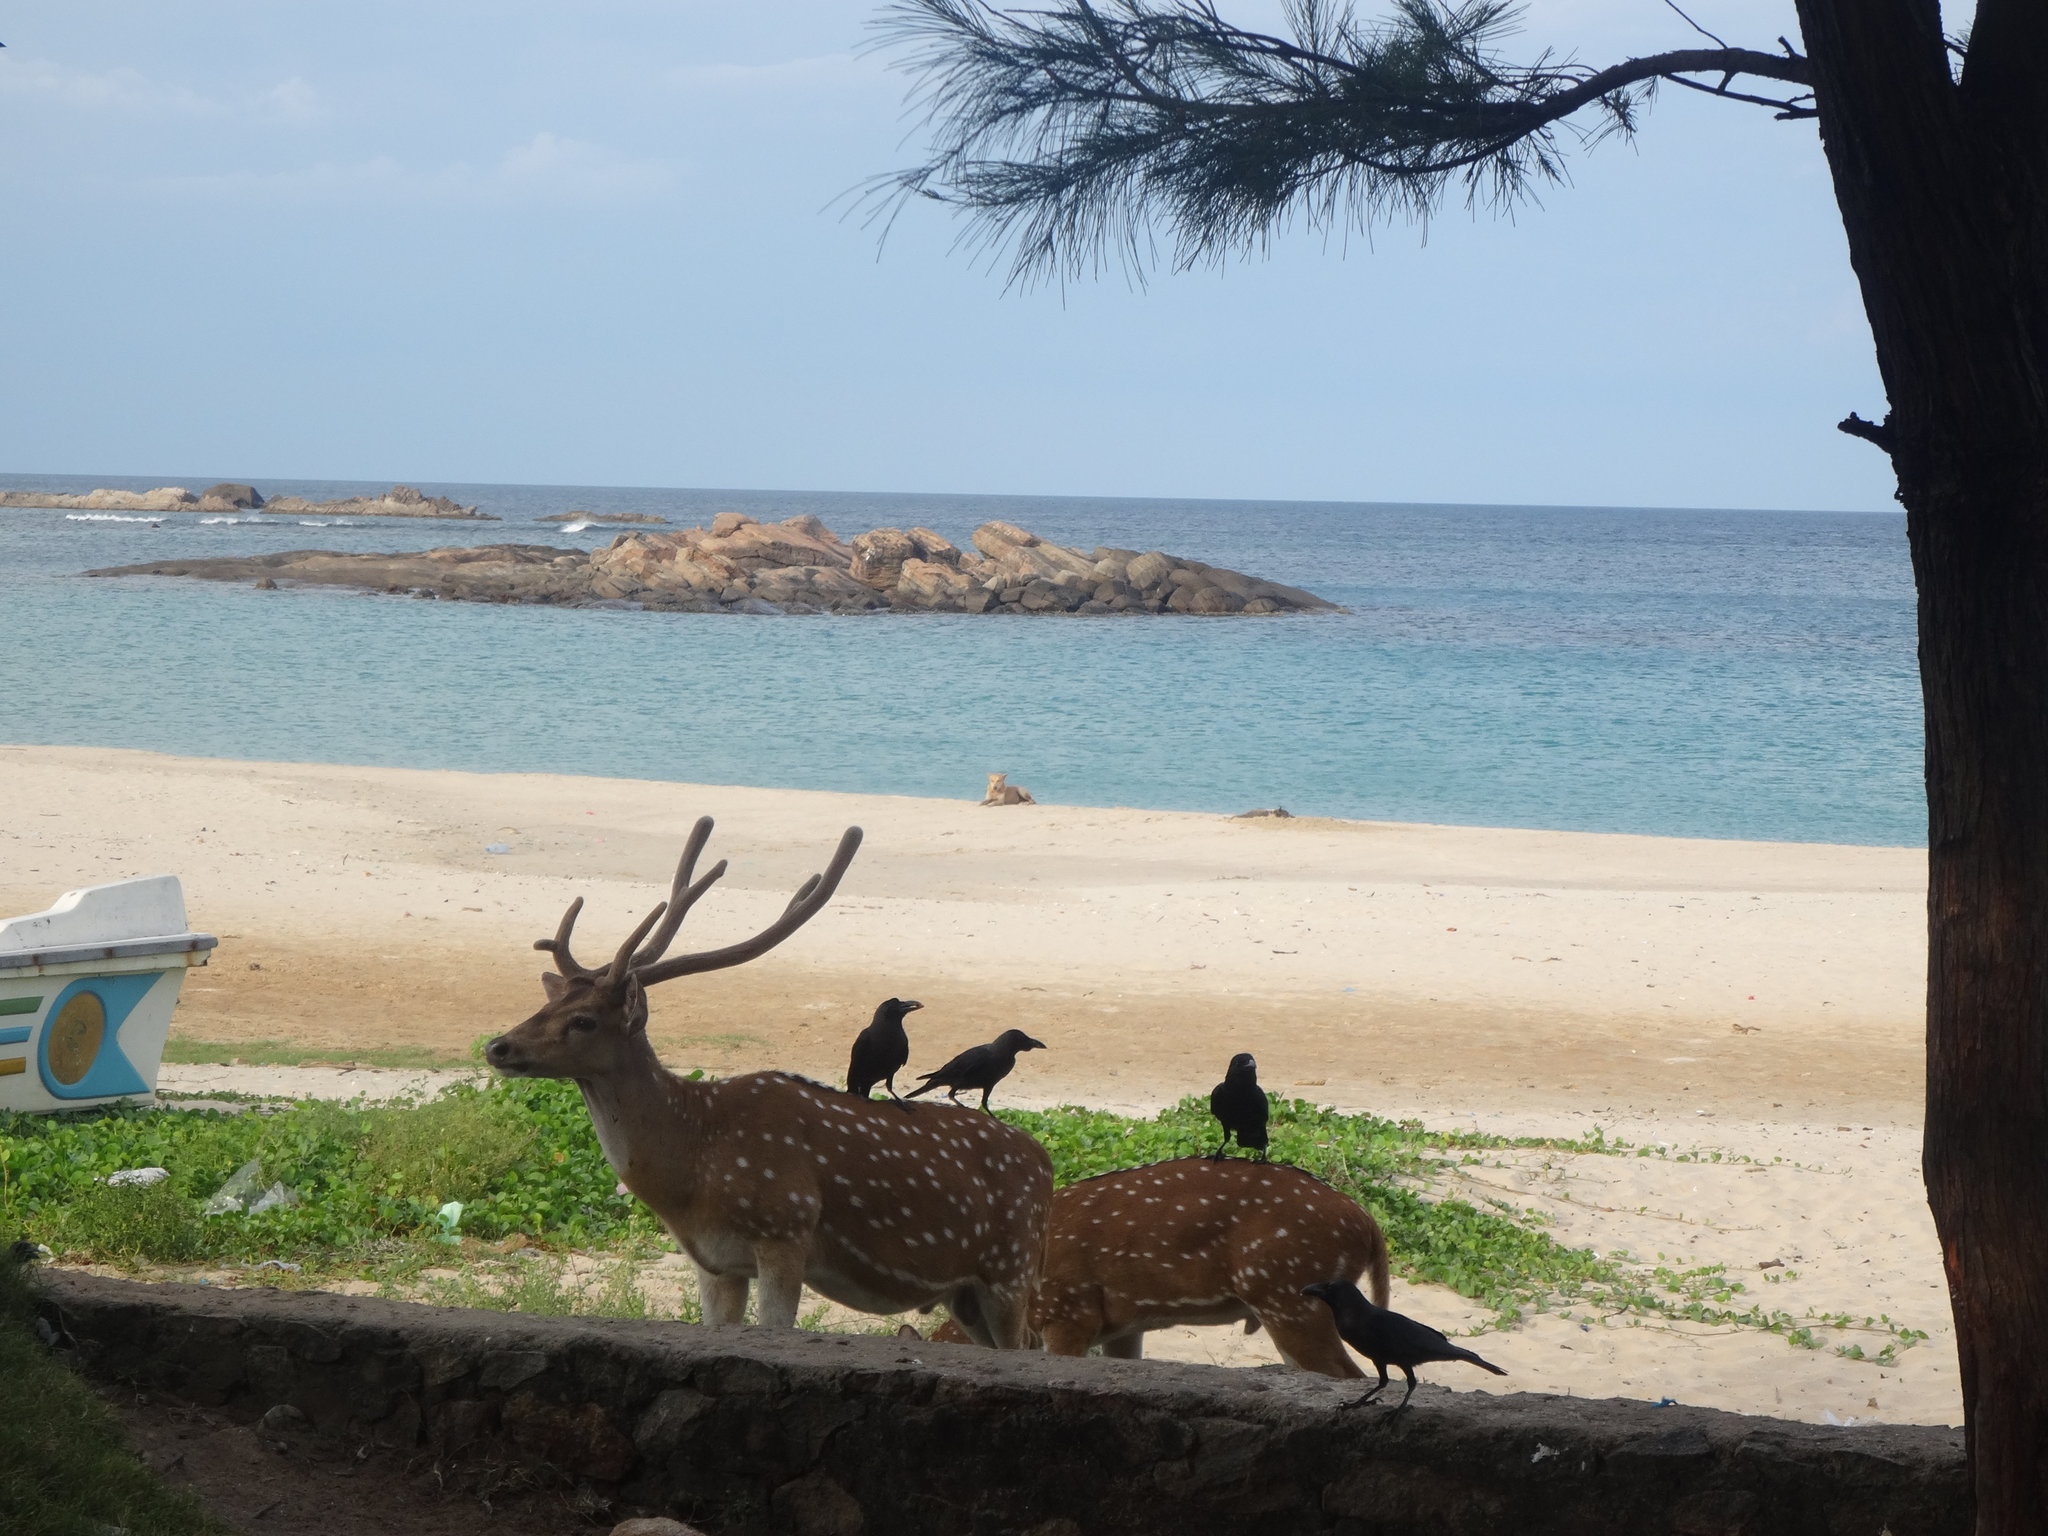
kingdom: Animalia
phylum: Chordata
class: Mammalia
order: Artiodactyla
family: Cervidae
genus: Axis
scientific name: Axis axis
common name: Chital
